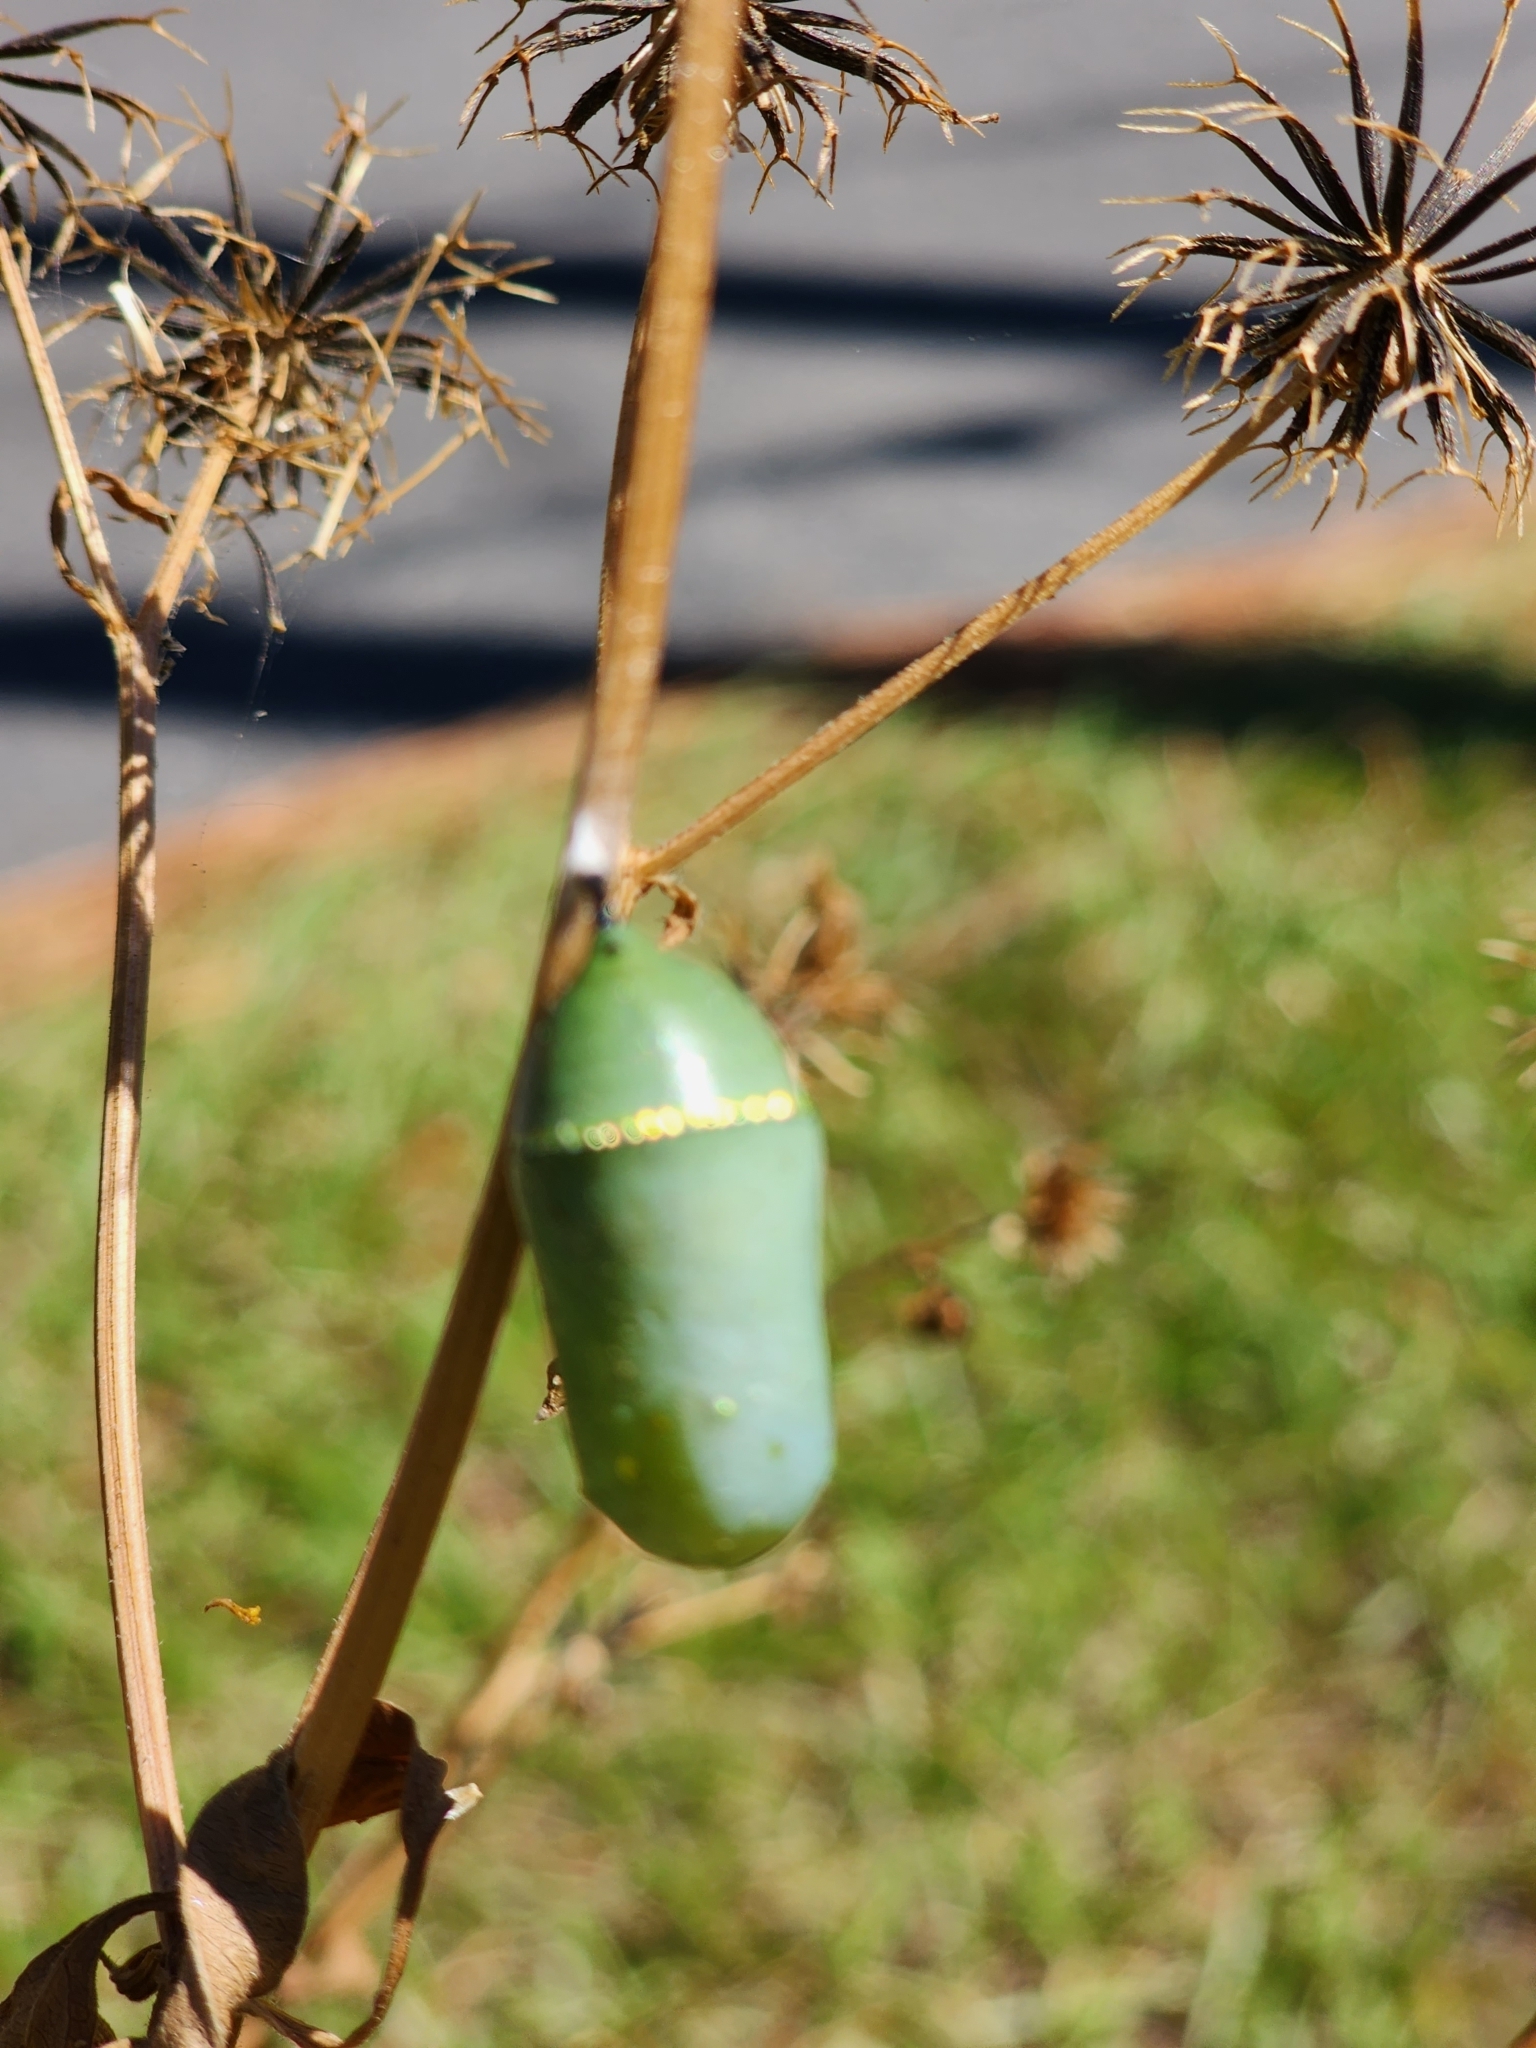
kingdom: Animalia
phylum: Arthropoda
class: Insecta
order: Lepidoptera
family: Nymphalidae
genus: Danaus
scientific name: Danaus plexippus
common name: Monarch
